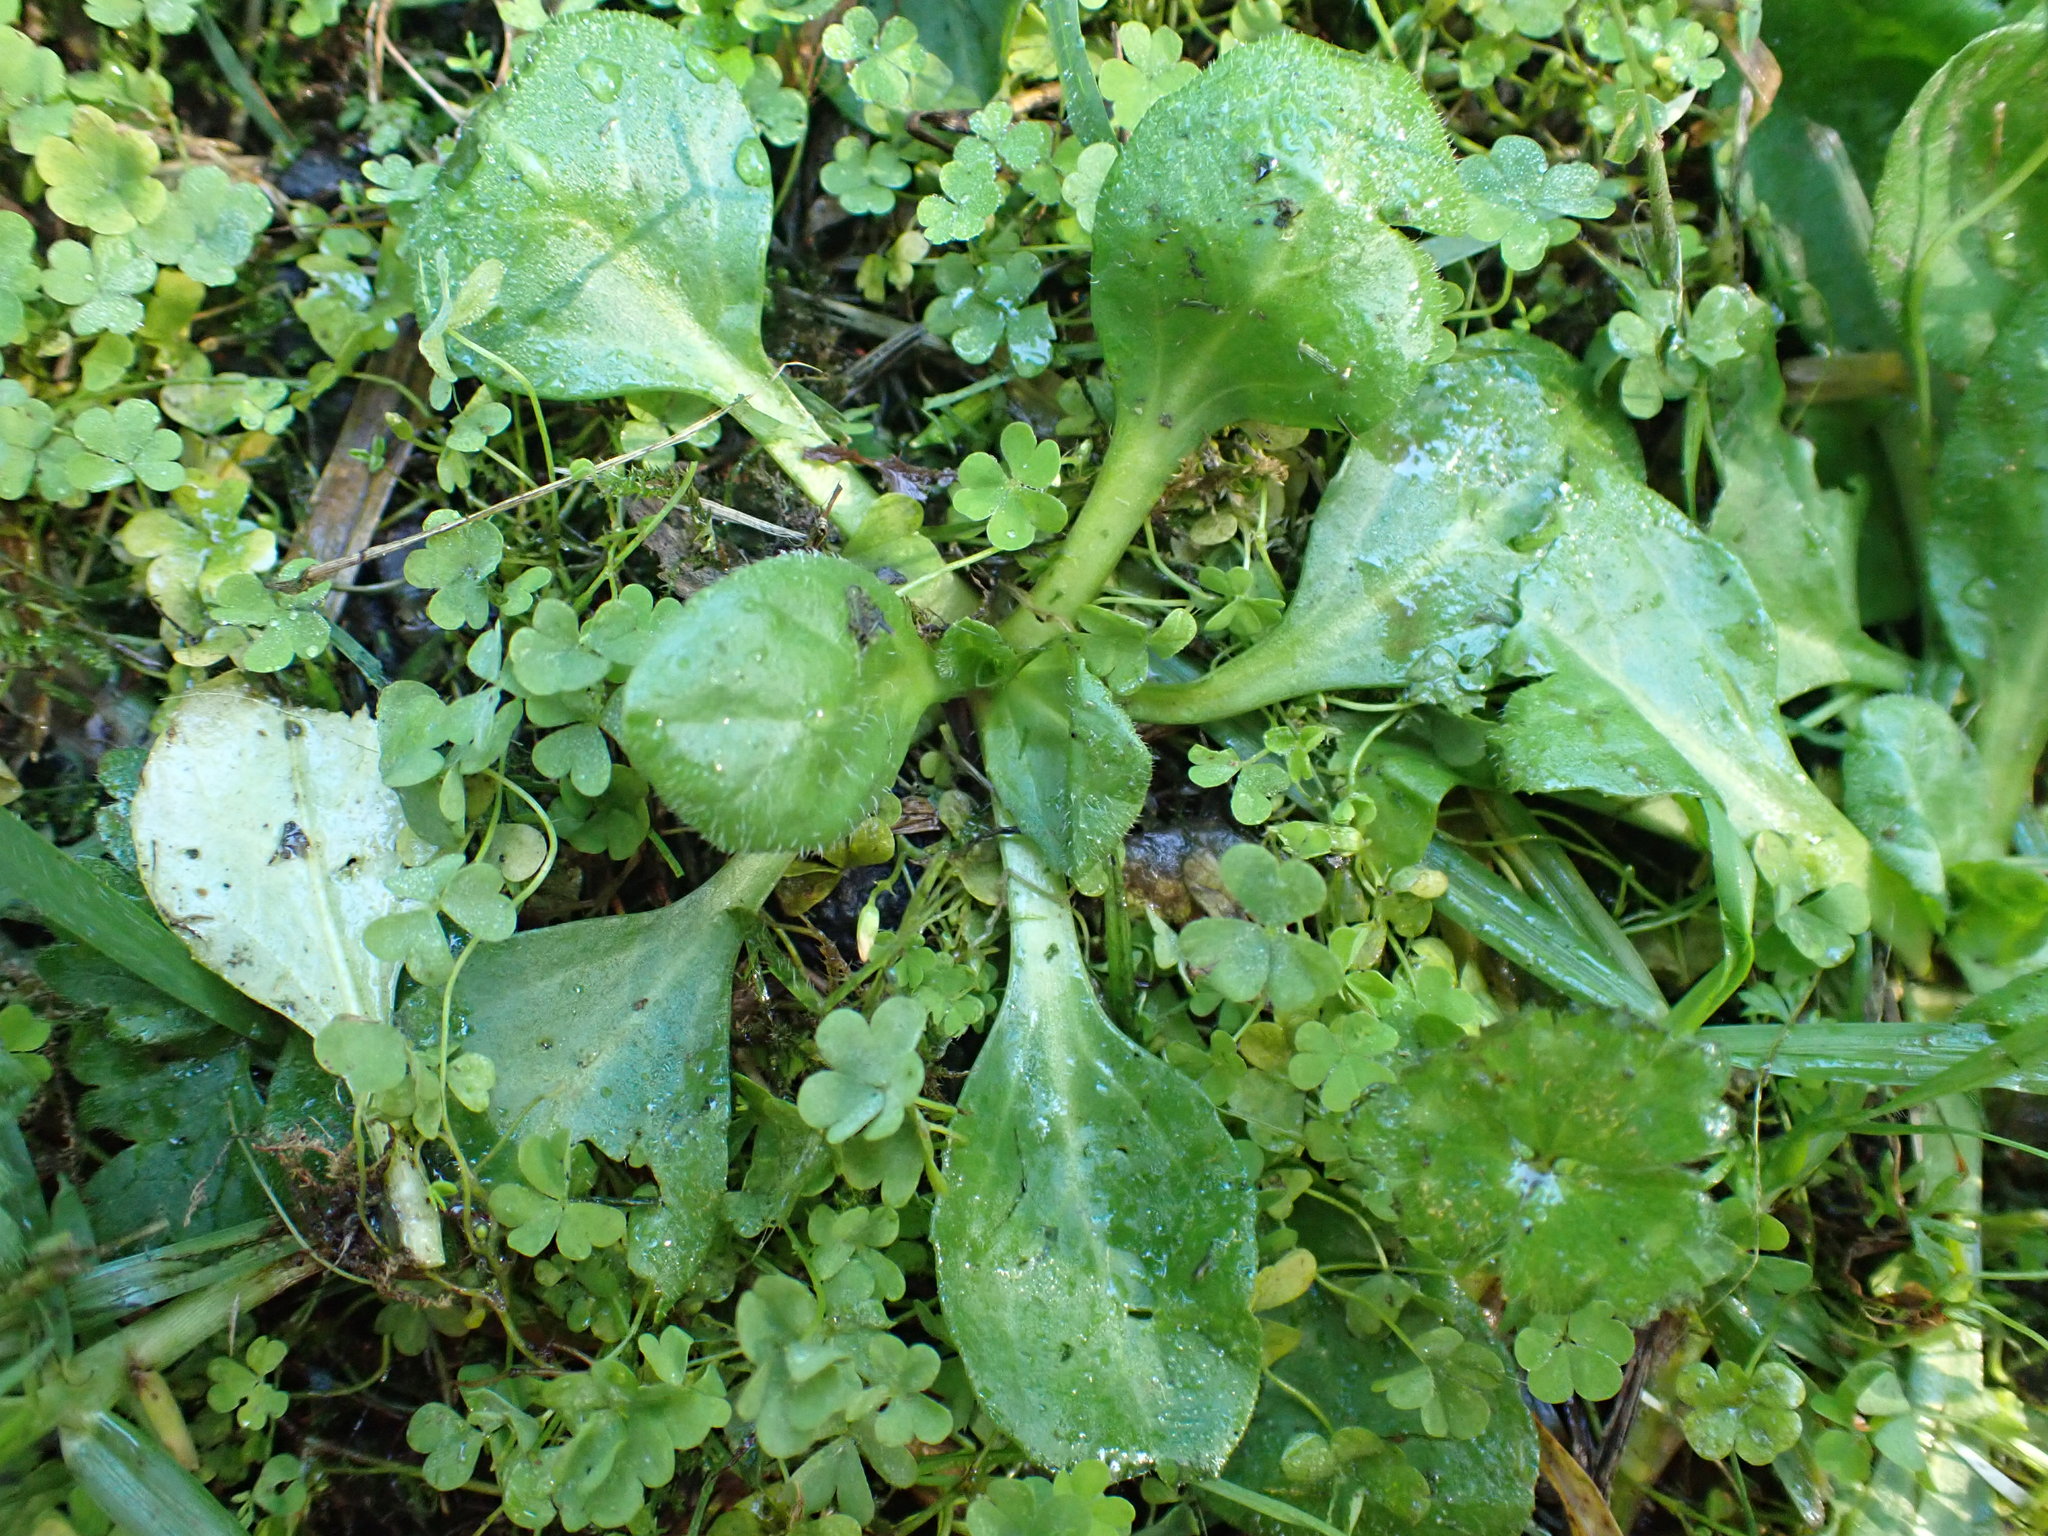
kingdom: Plantae
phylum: Tracheophyta
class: Magnoliopsida
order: Asterales
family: Asteraceae
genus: Bellis
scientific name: Bellis perennis
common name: Lawndaisy
